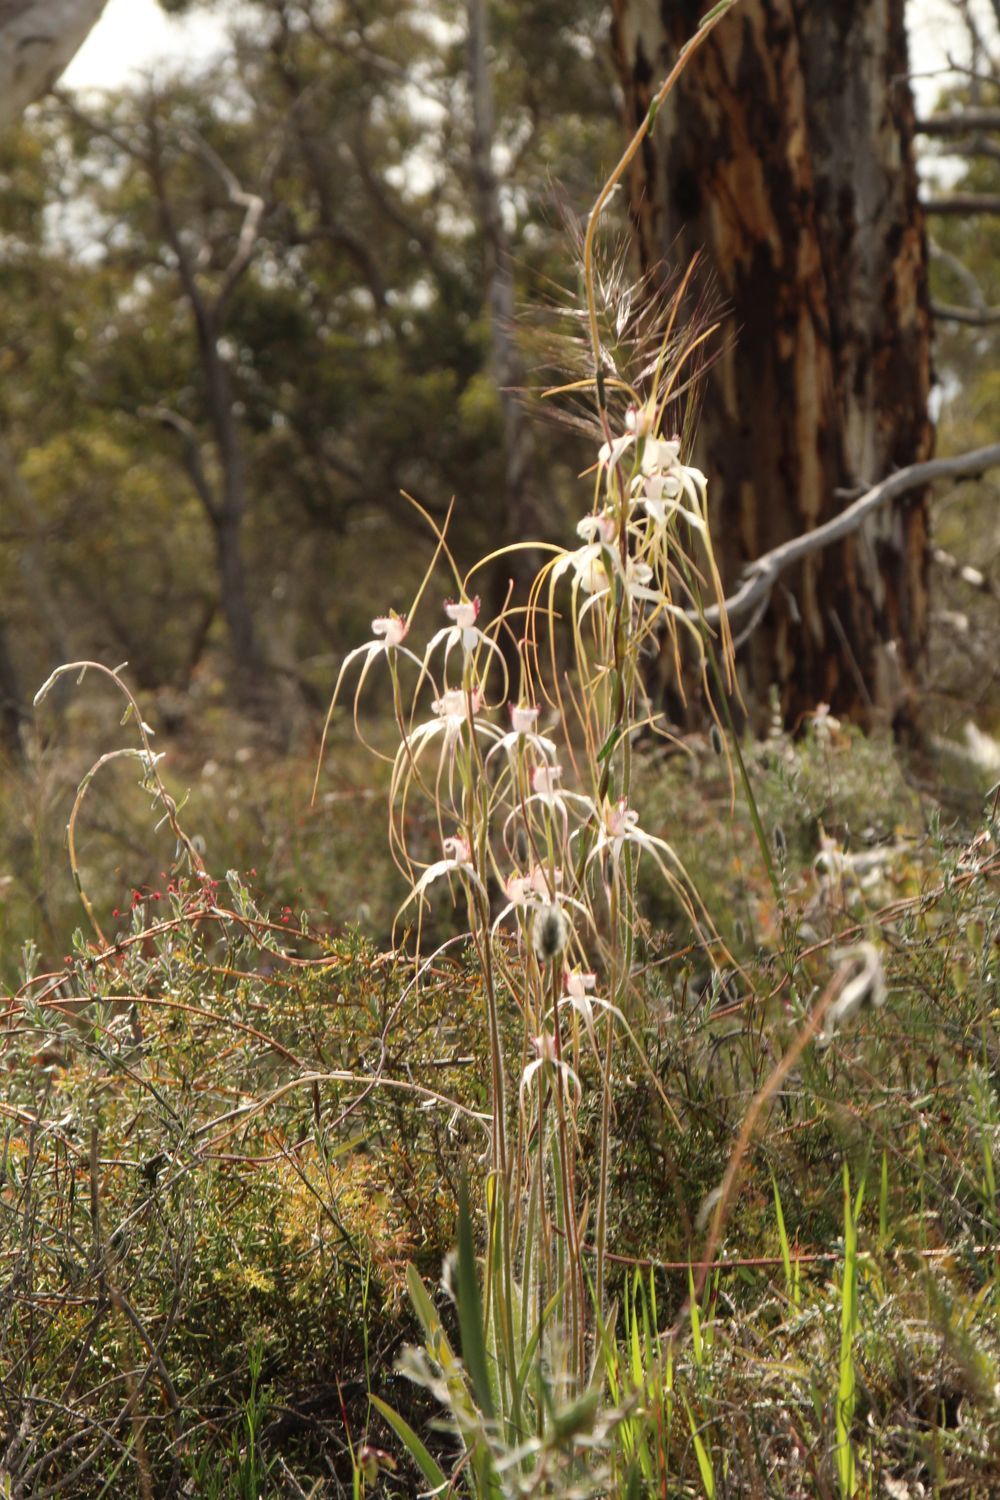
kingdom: Plantae
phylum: Tracheophyta
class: Liliopsida
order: Asparagales
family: Orchidaceae
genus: Caladenia
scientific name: Caladenia longicauda
